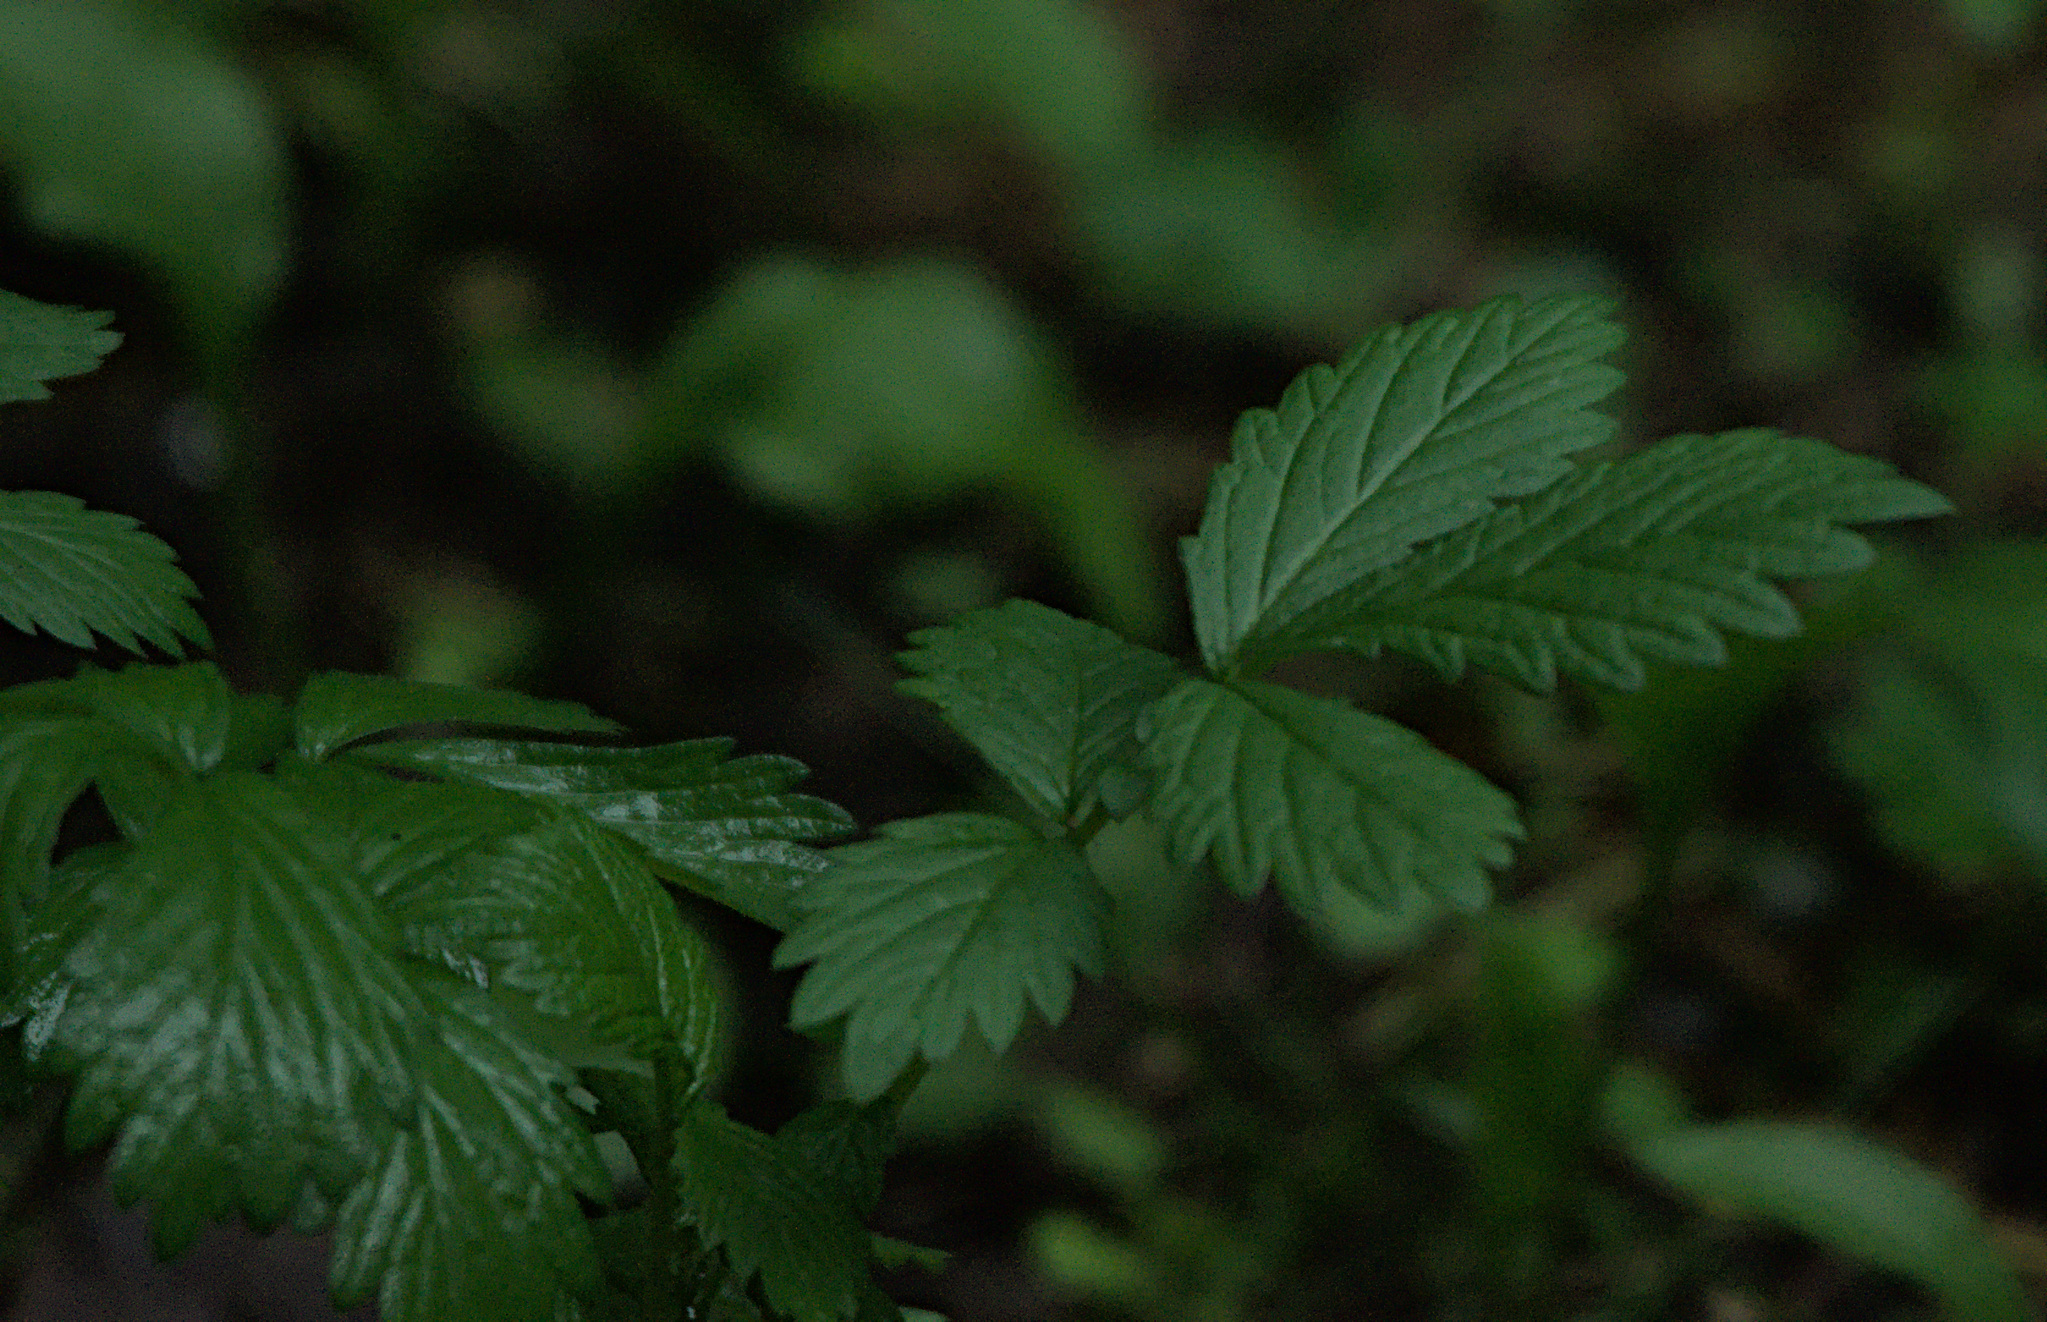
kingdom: Plantae
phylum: Tracheophyta
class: Magnoliopsida
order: Rosales
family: Rosaceae
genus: Agrimonia
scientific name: Agrimonia pilosa
